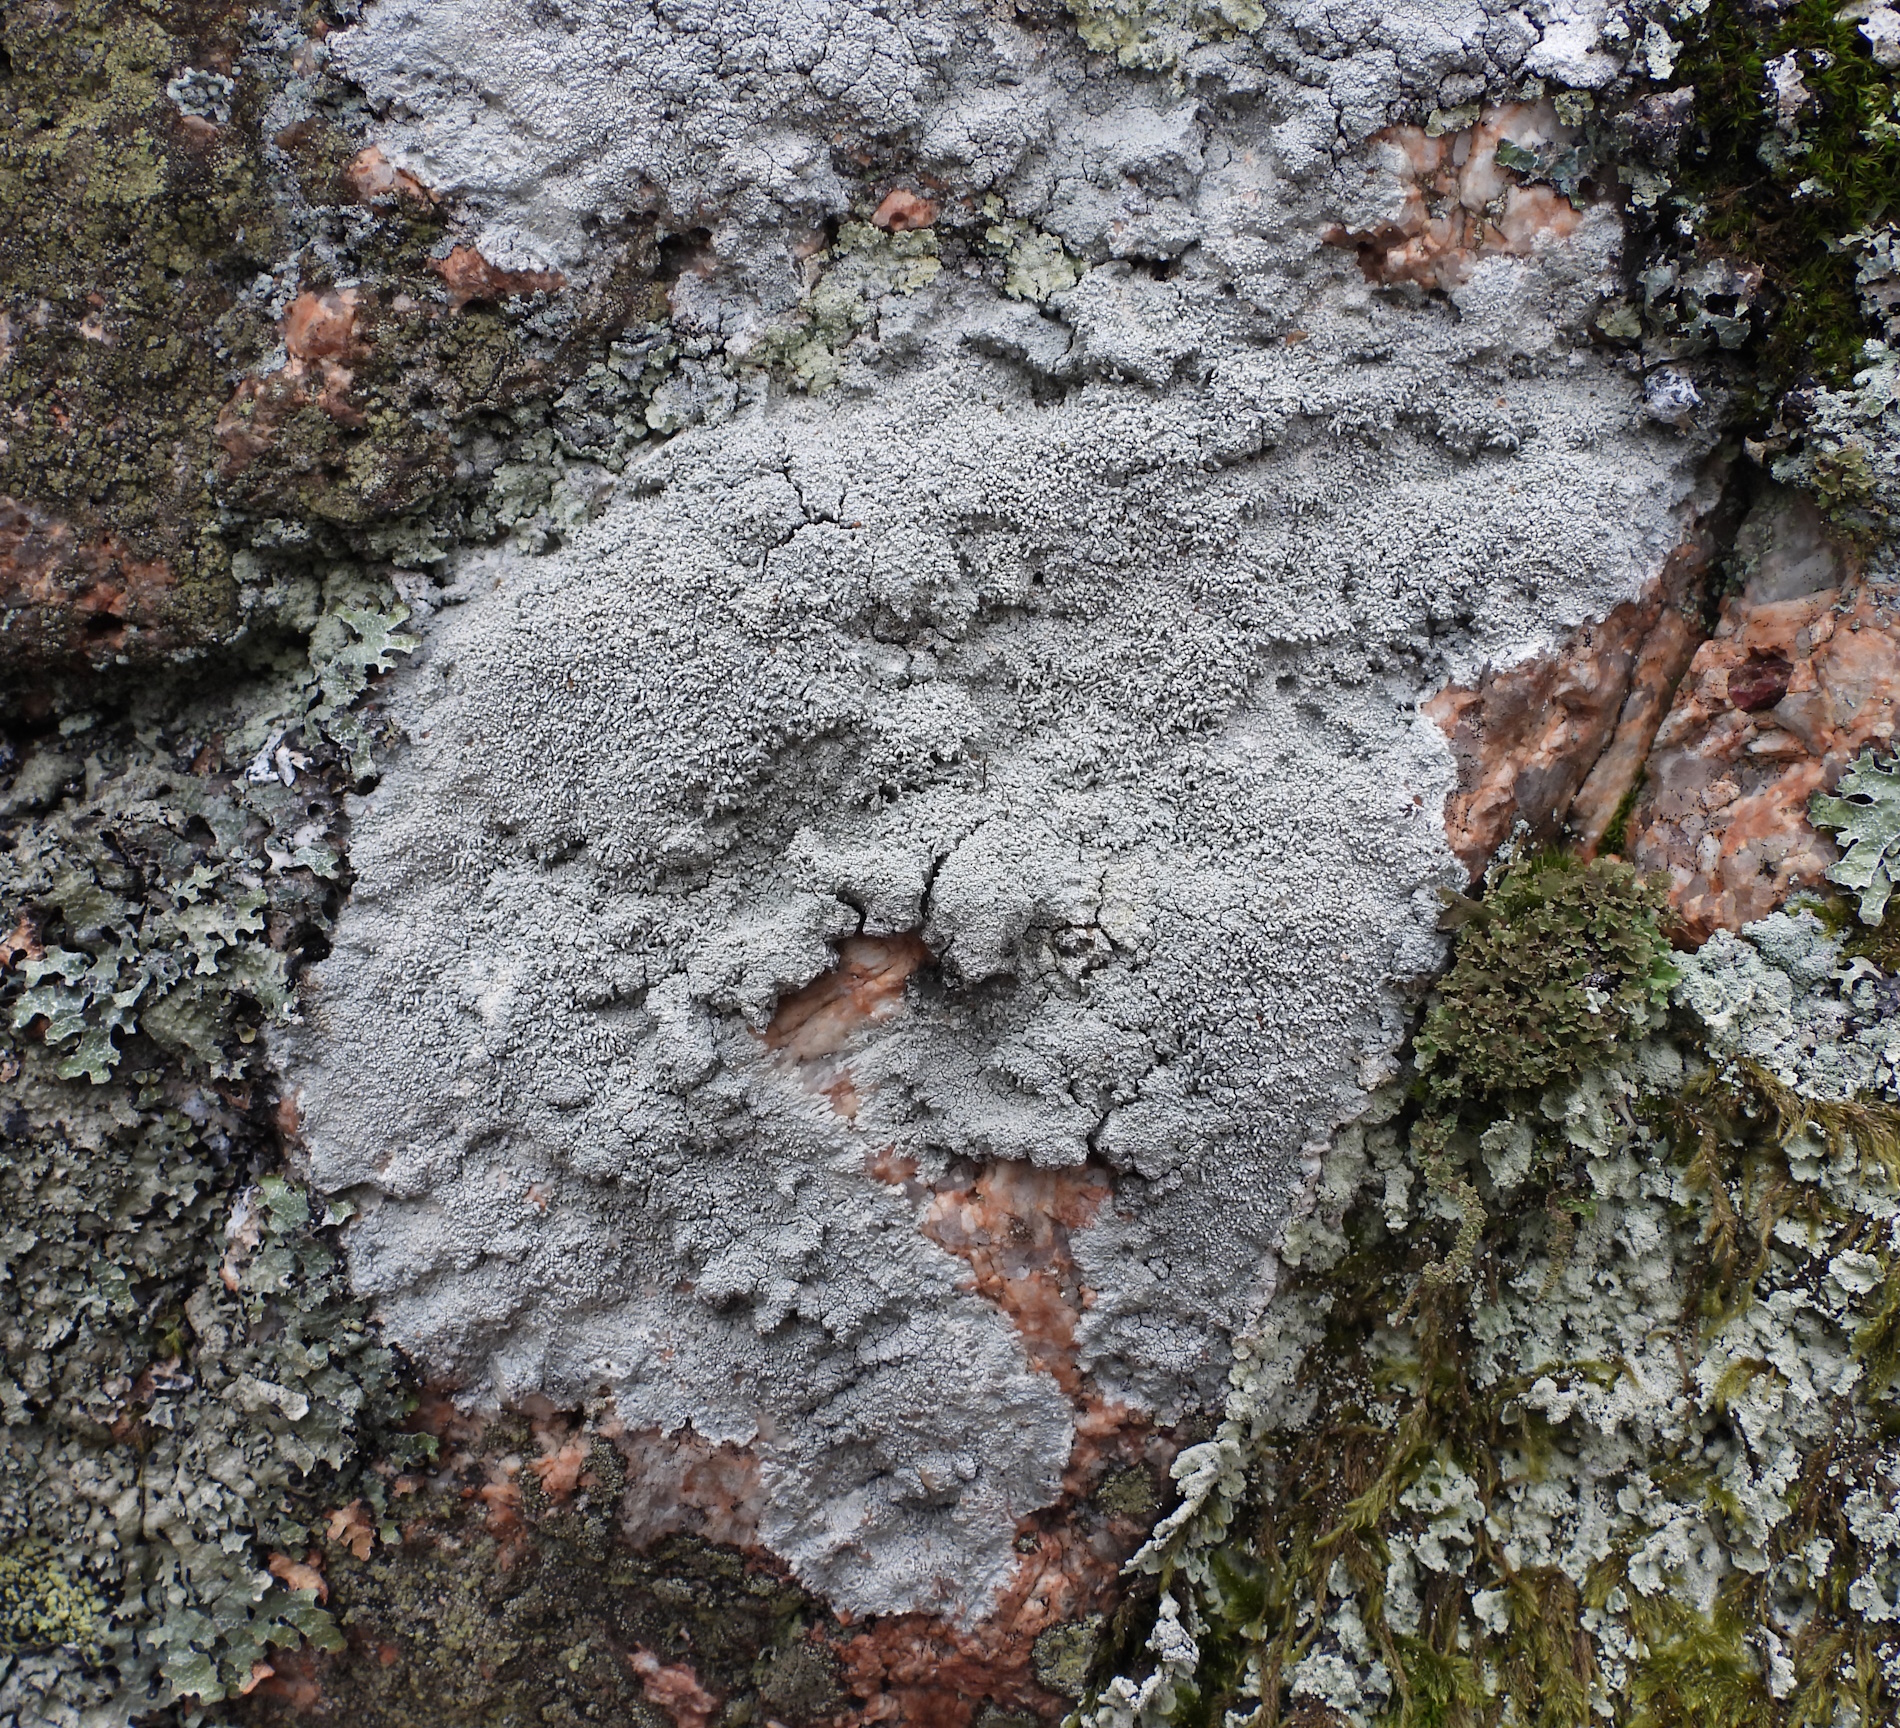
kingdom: Fungi
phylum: Ascomycota
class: Lecanoromycetes
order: Pertusariales
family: Pertusariaceae
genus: Lepra
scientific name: Lepra corallina
